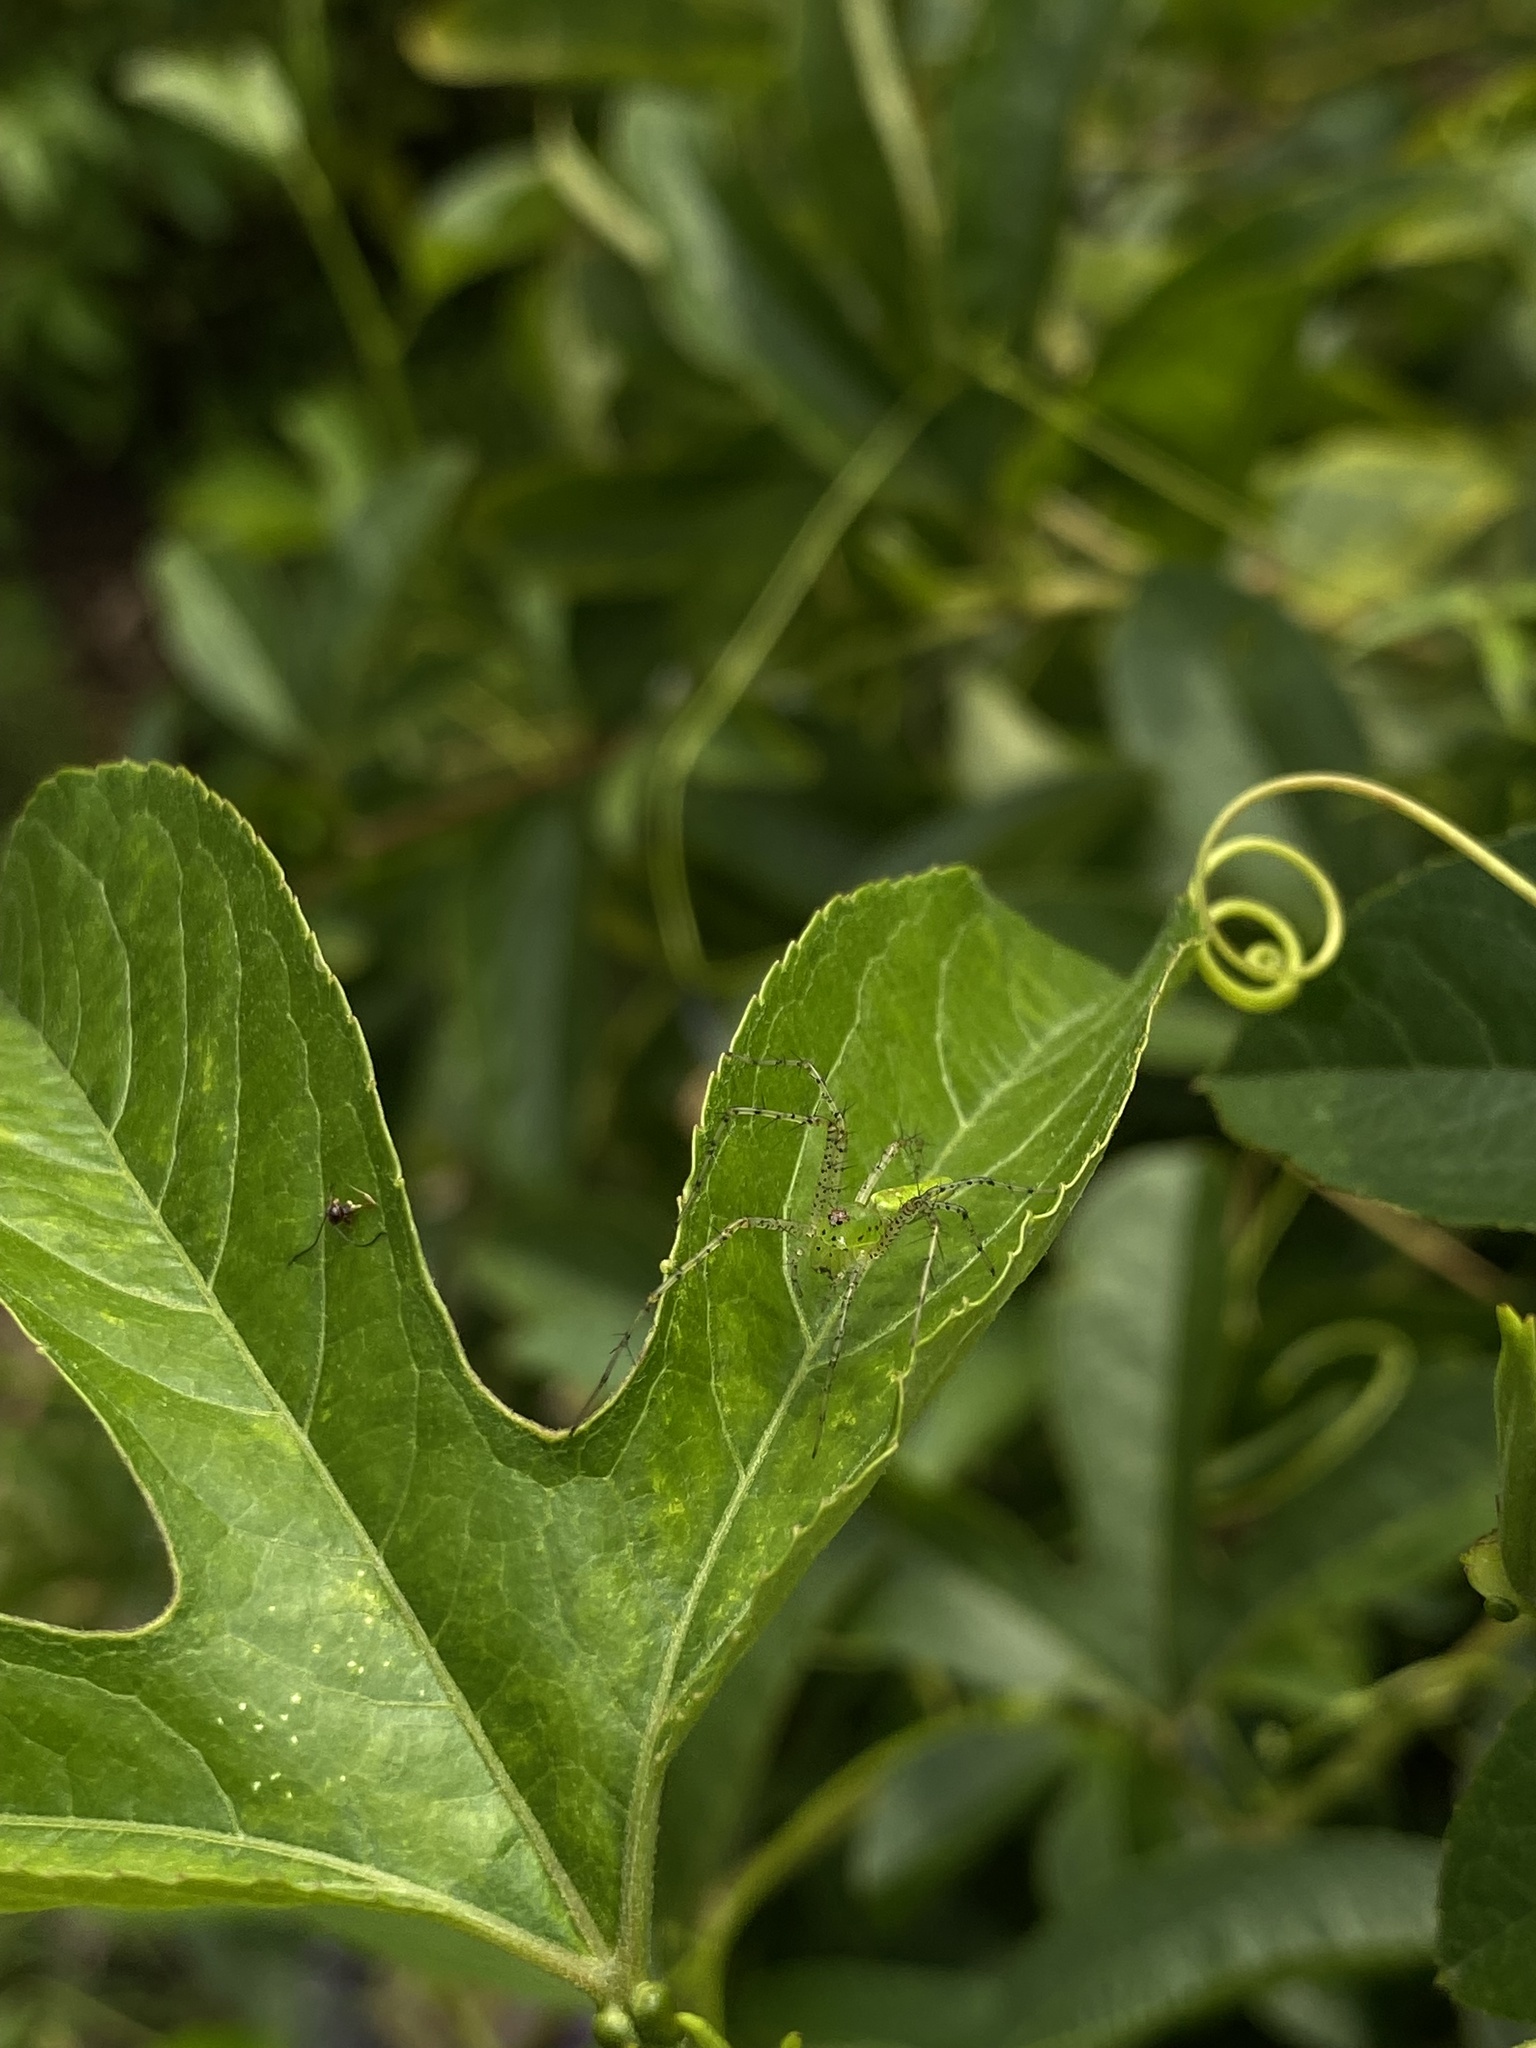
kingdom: Animalia
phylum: Arthropoda
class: Arachnida
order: Araneae
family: Oxyopidae
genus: Peucetia
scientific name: Peucetia viridans
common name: Lynx spiders
